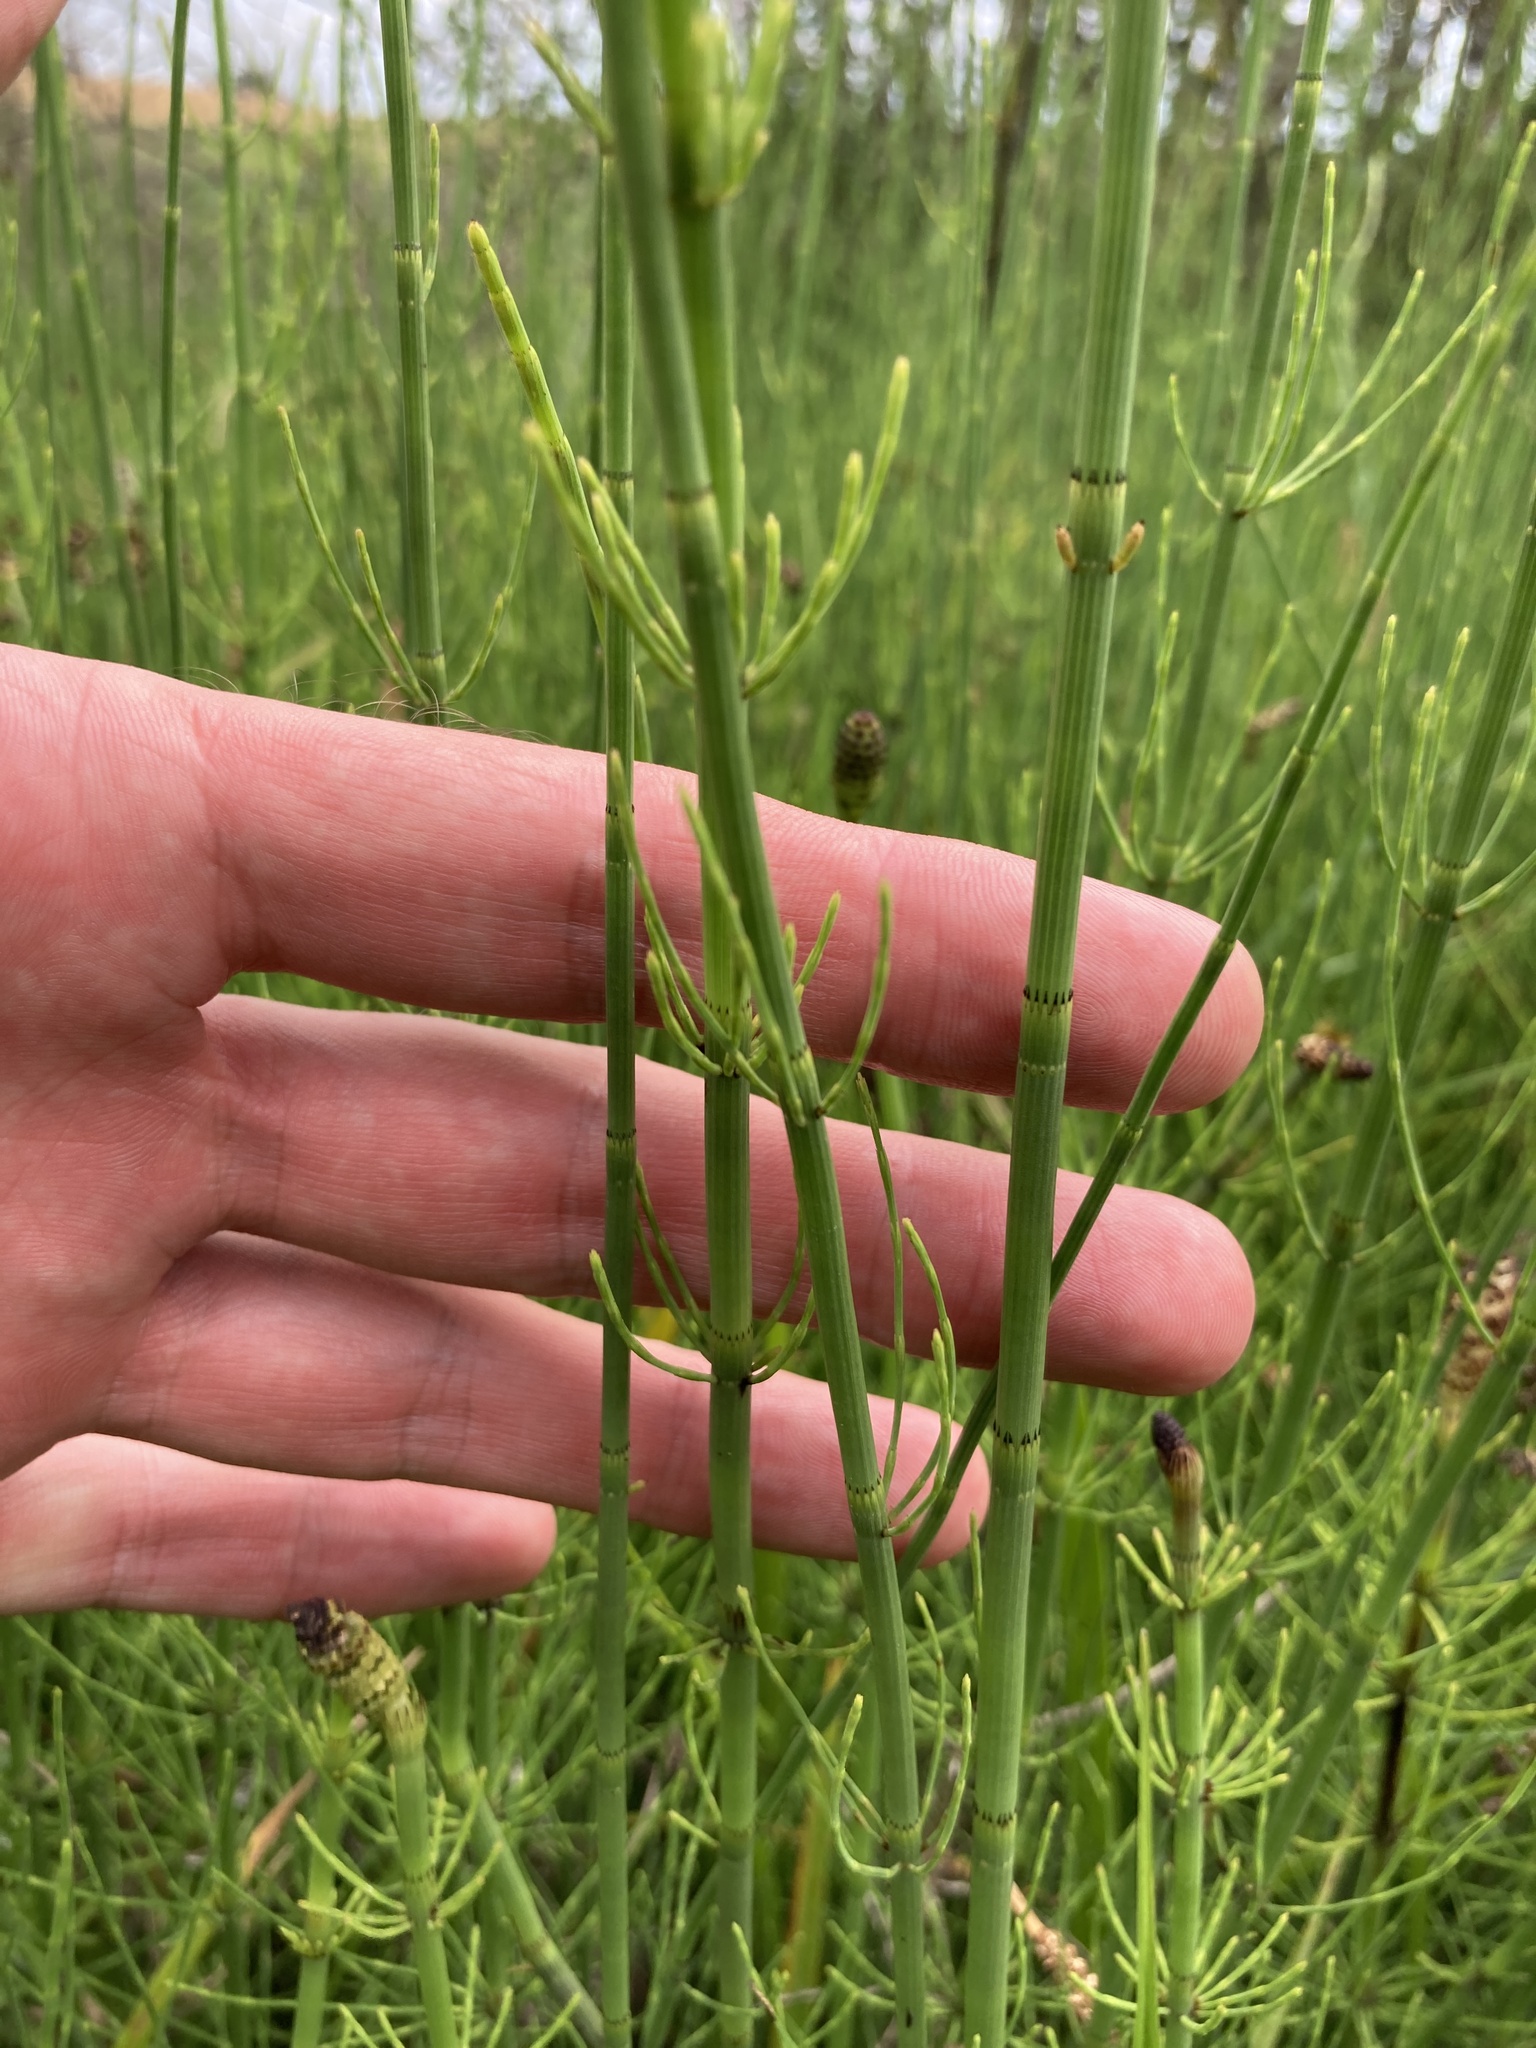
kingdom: Plantae
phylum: Tracheophyta
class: Polypodiopsida
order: Equisetales
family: Equisetaceae
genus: Equisetum
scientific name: Equisetum fluviatile
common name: Water horsetail
